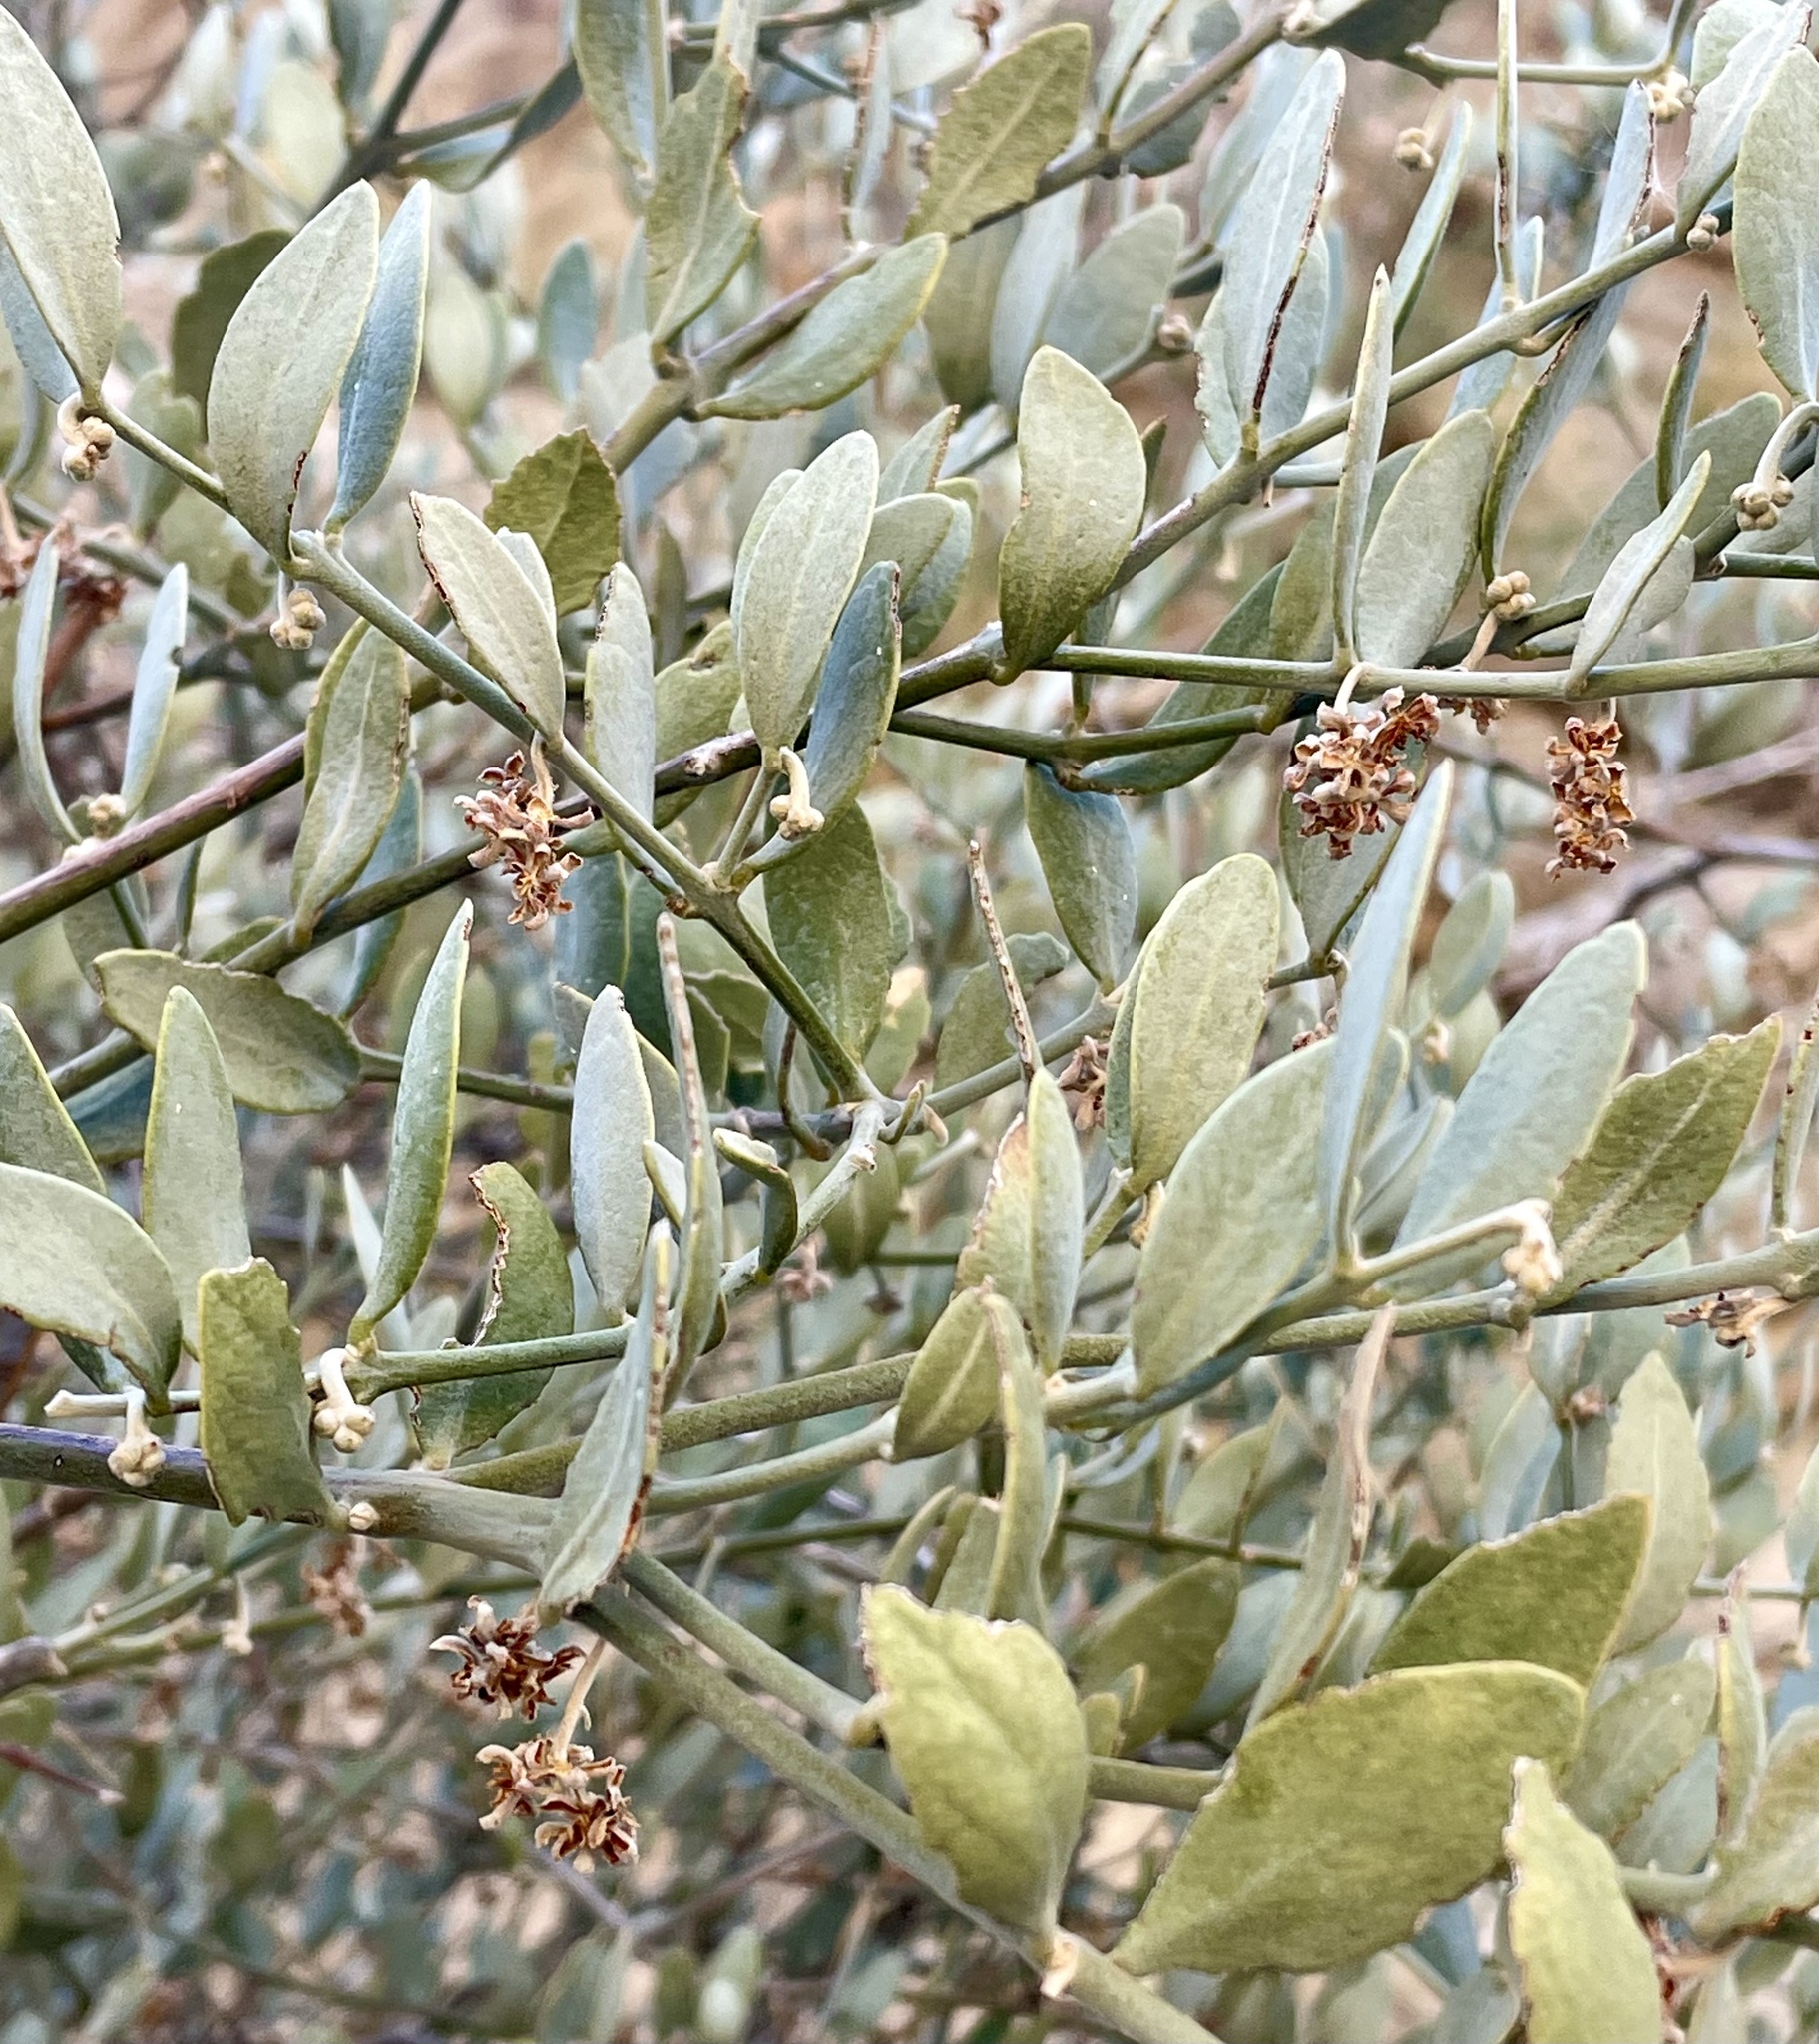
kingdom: Plantae
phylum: Tracheophyta
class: Magnoliopsida
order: Caryophyllales
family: Simmondsiaceae
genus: Simmondsia
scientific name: Simmondsia chinensis
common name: Jojoba
